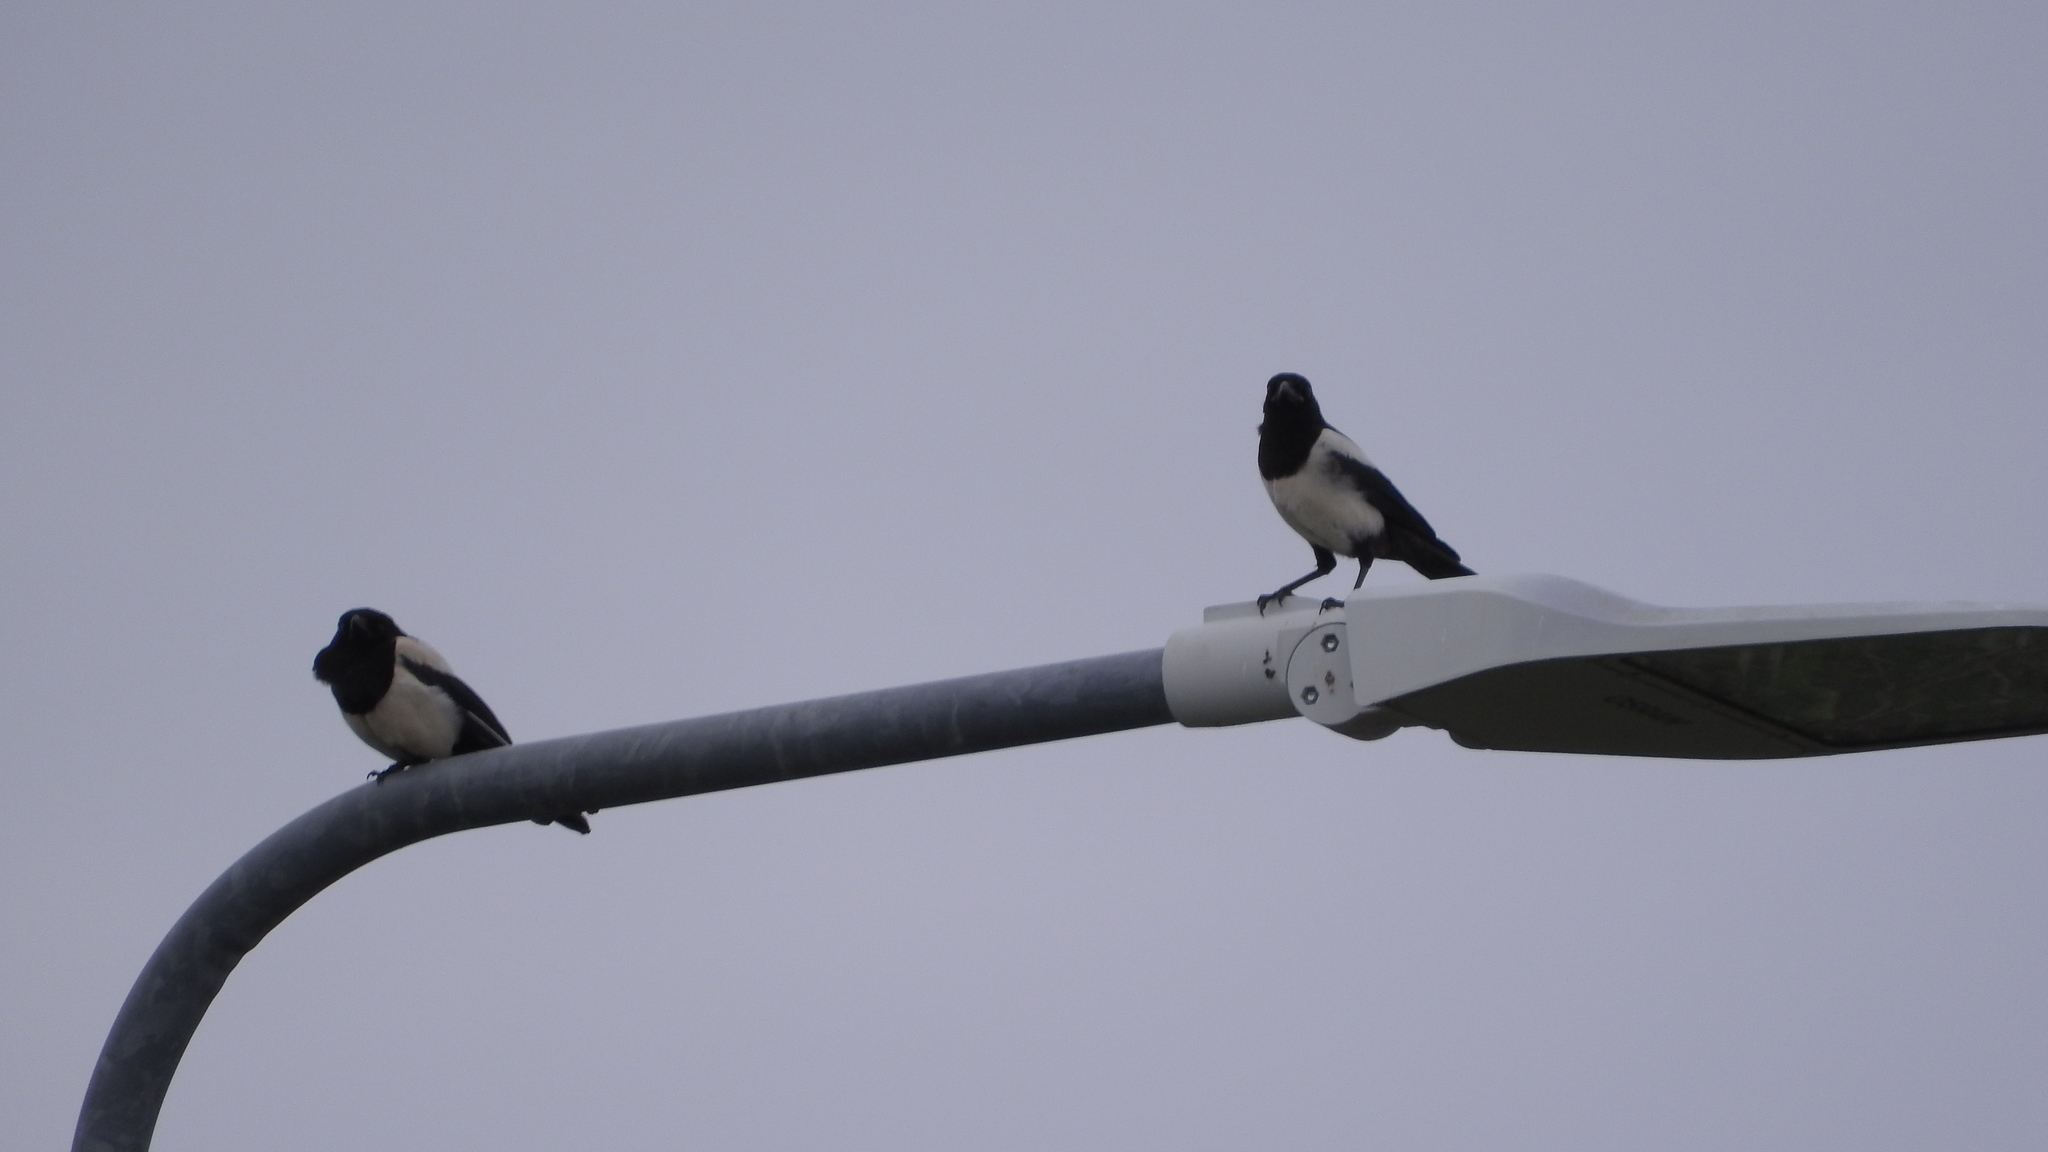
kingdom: Animalia
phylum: Chordata
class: Aves
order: Passeriformes
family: Corvidae
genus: Pica
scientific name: Pica pica
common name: Eurasian magpie
